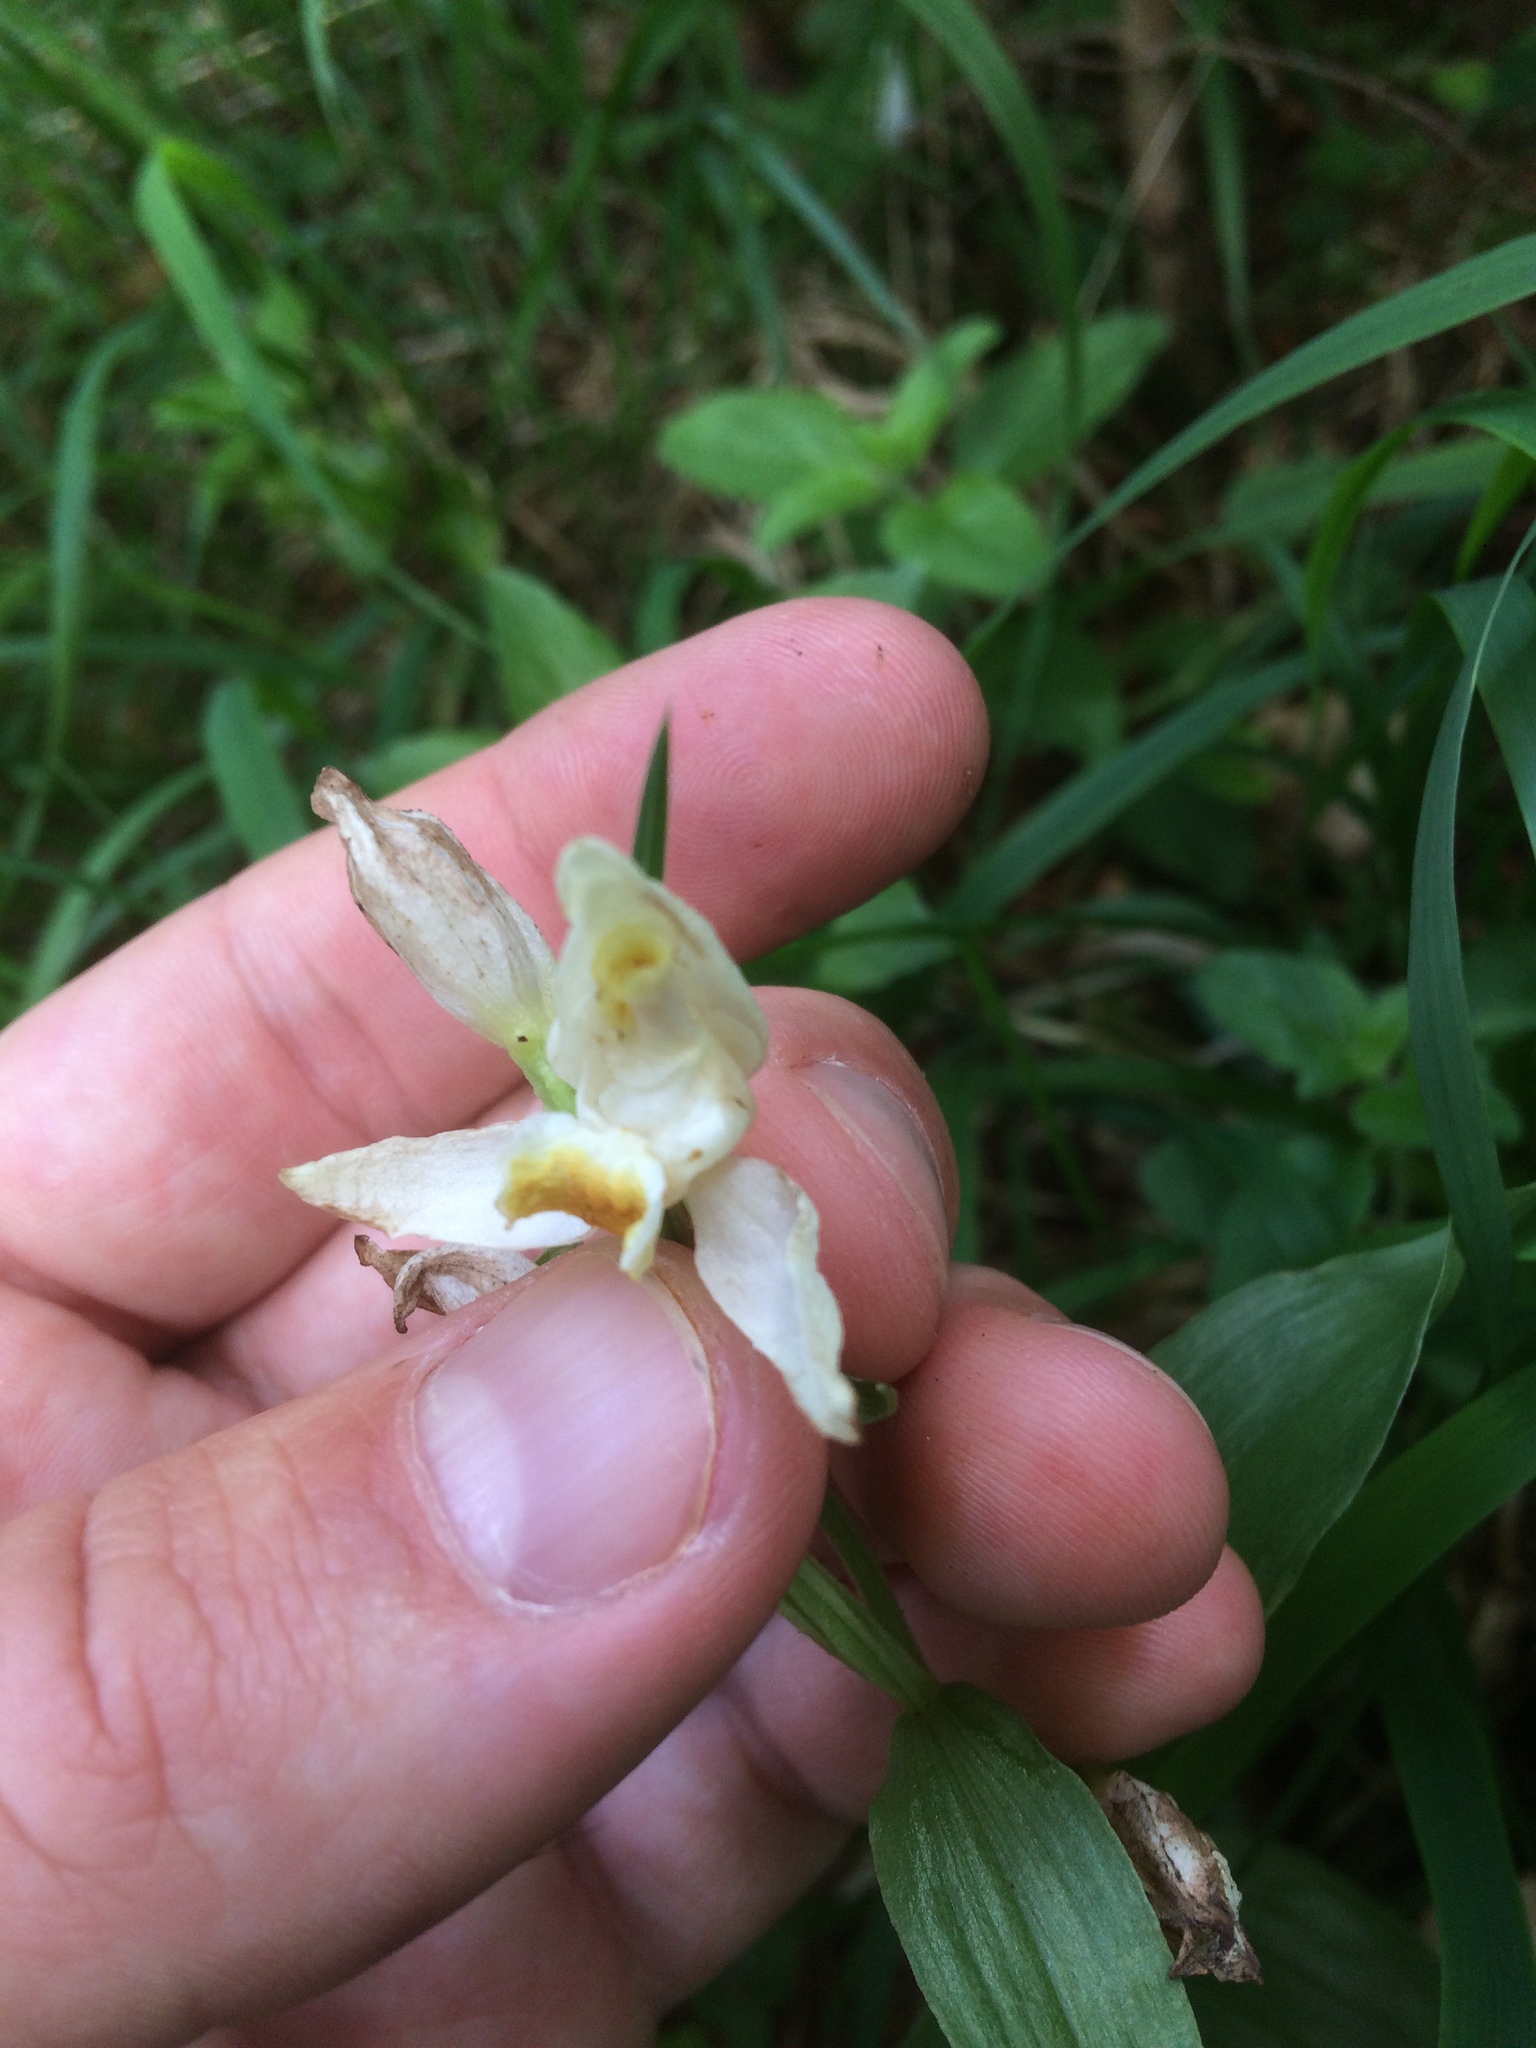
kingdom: Plantae
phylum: Tracheophyta
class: Liliopsida
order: Asparagales
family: Orchidaceae
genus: Cephalanthera
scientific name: Cephalanthera damasonium
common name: White helleborine
